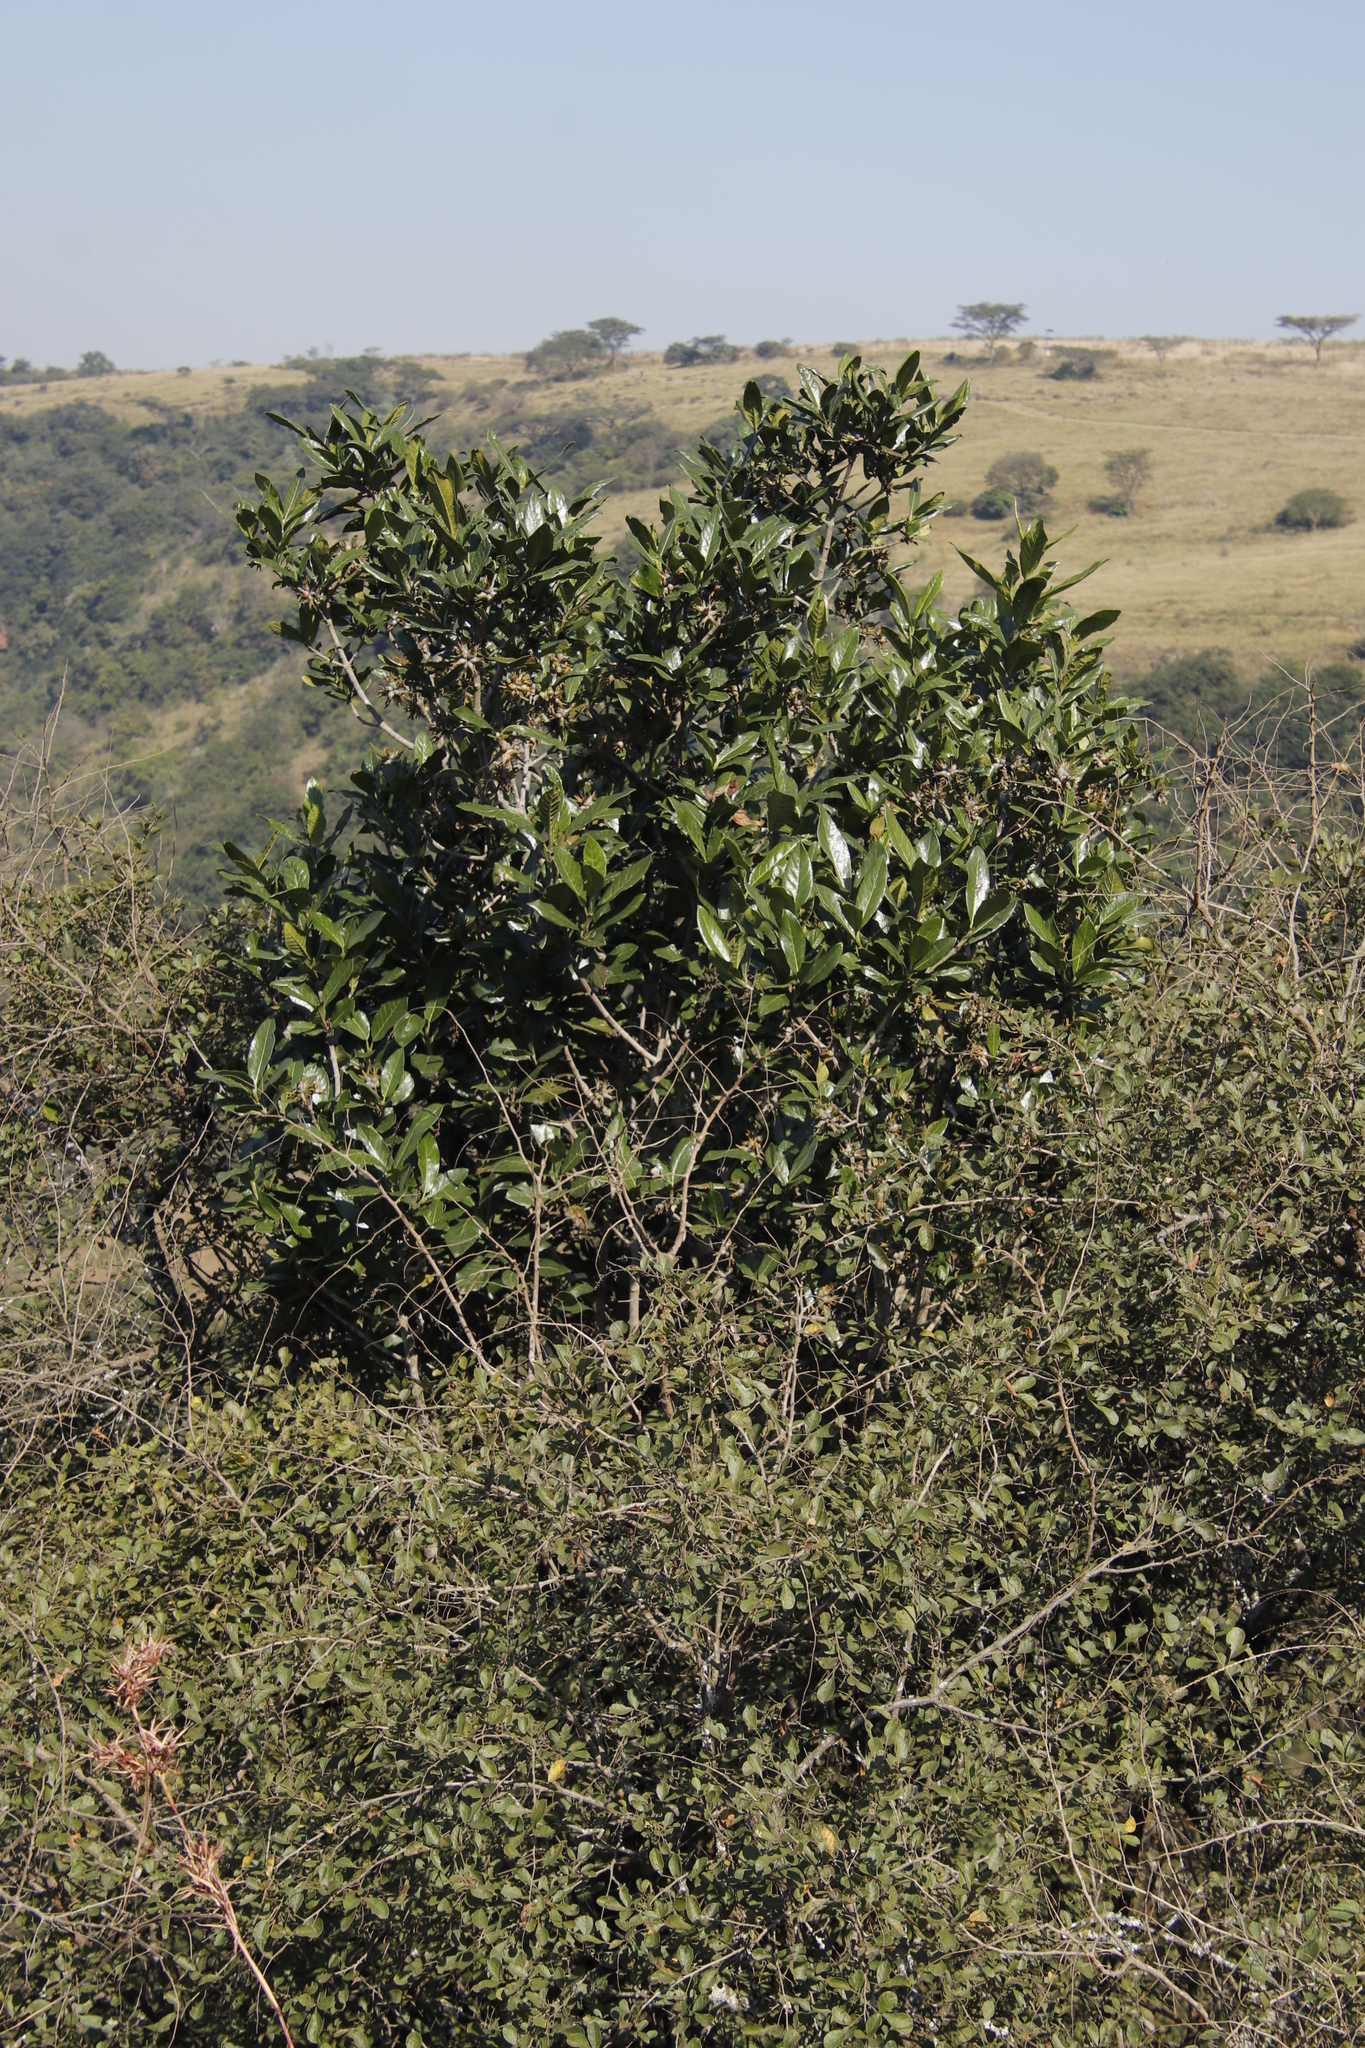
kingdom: Plantae
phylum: Tracheophyta
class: Magnoliopsida
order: Gentianales
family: Rubiaceae
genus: Burchellia
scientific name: Burchellia bubalina
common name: Wild pomegranate
